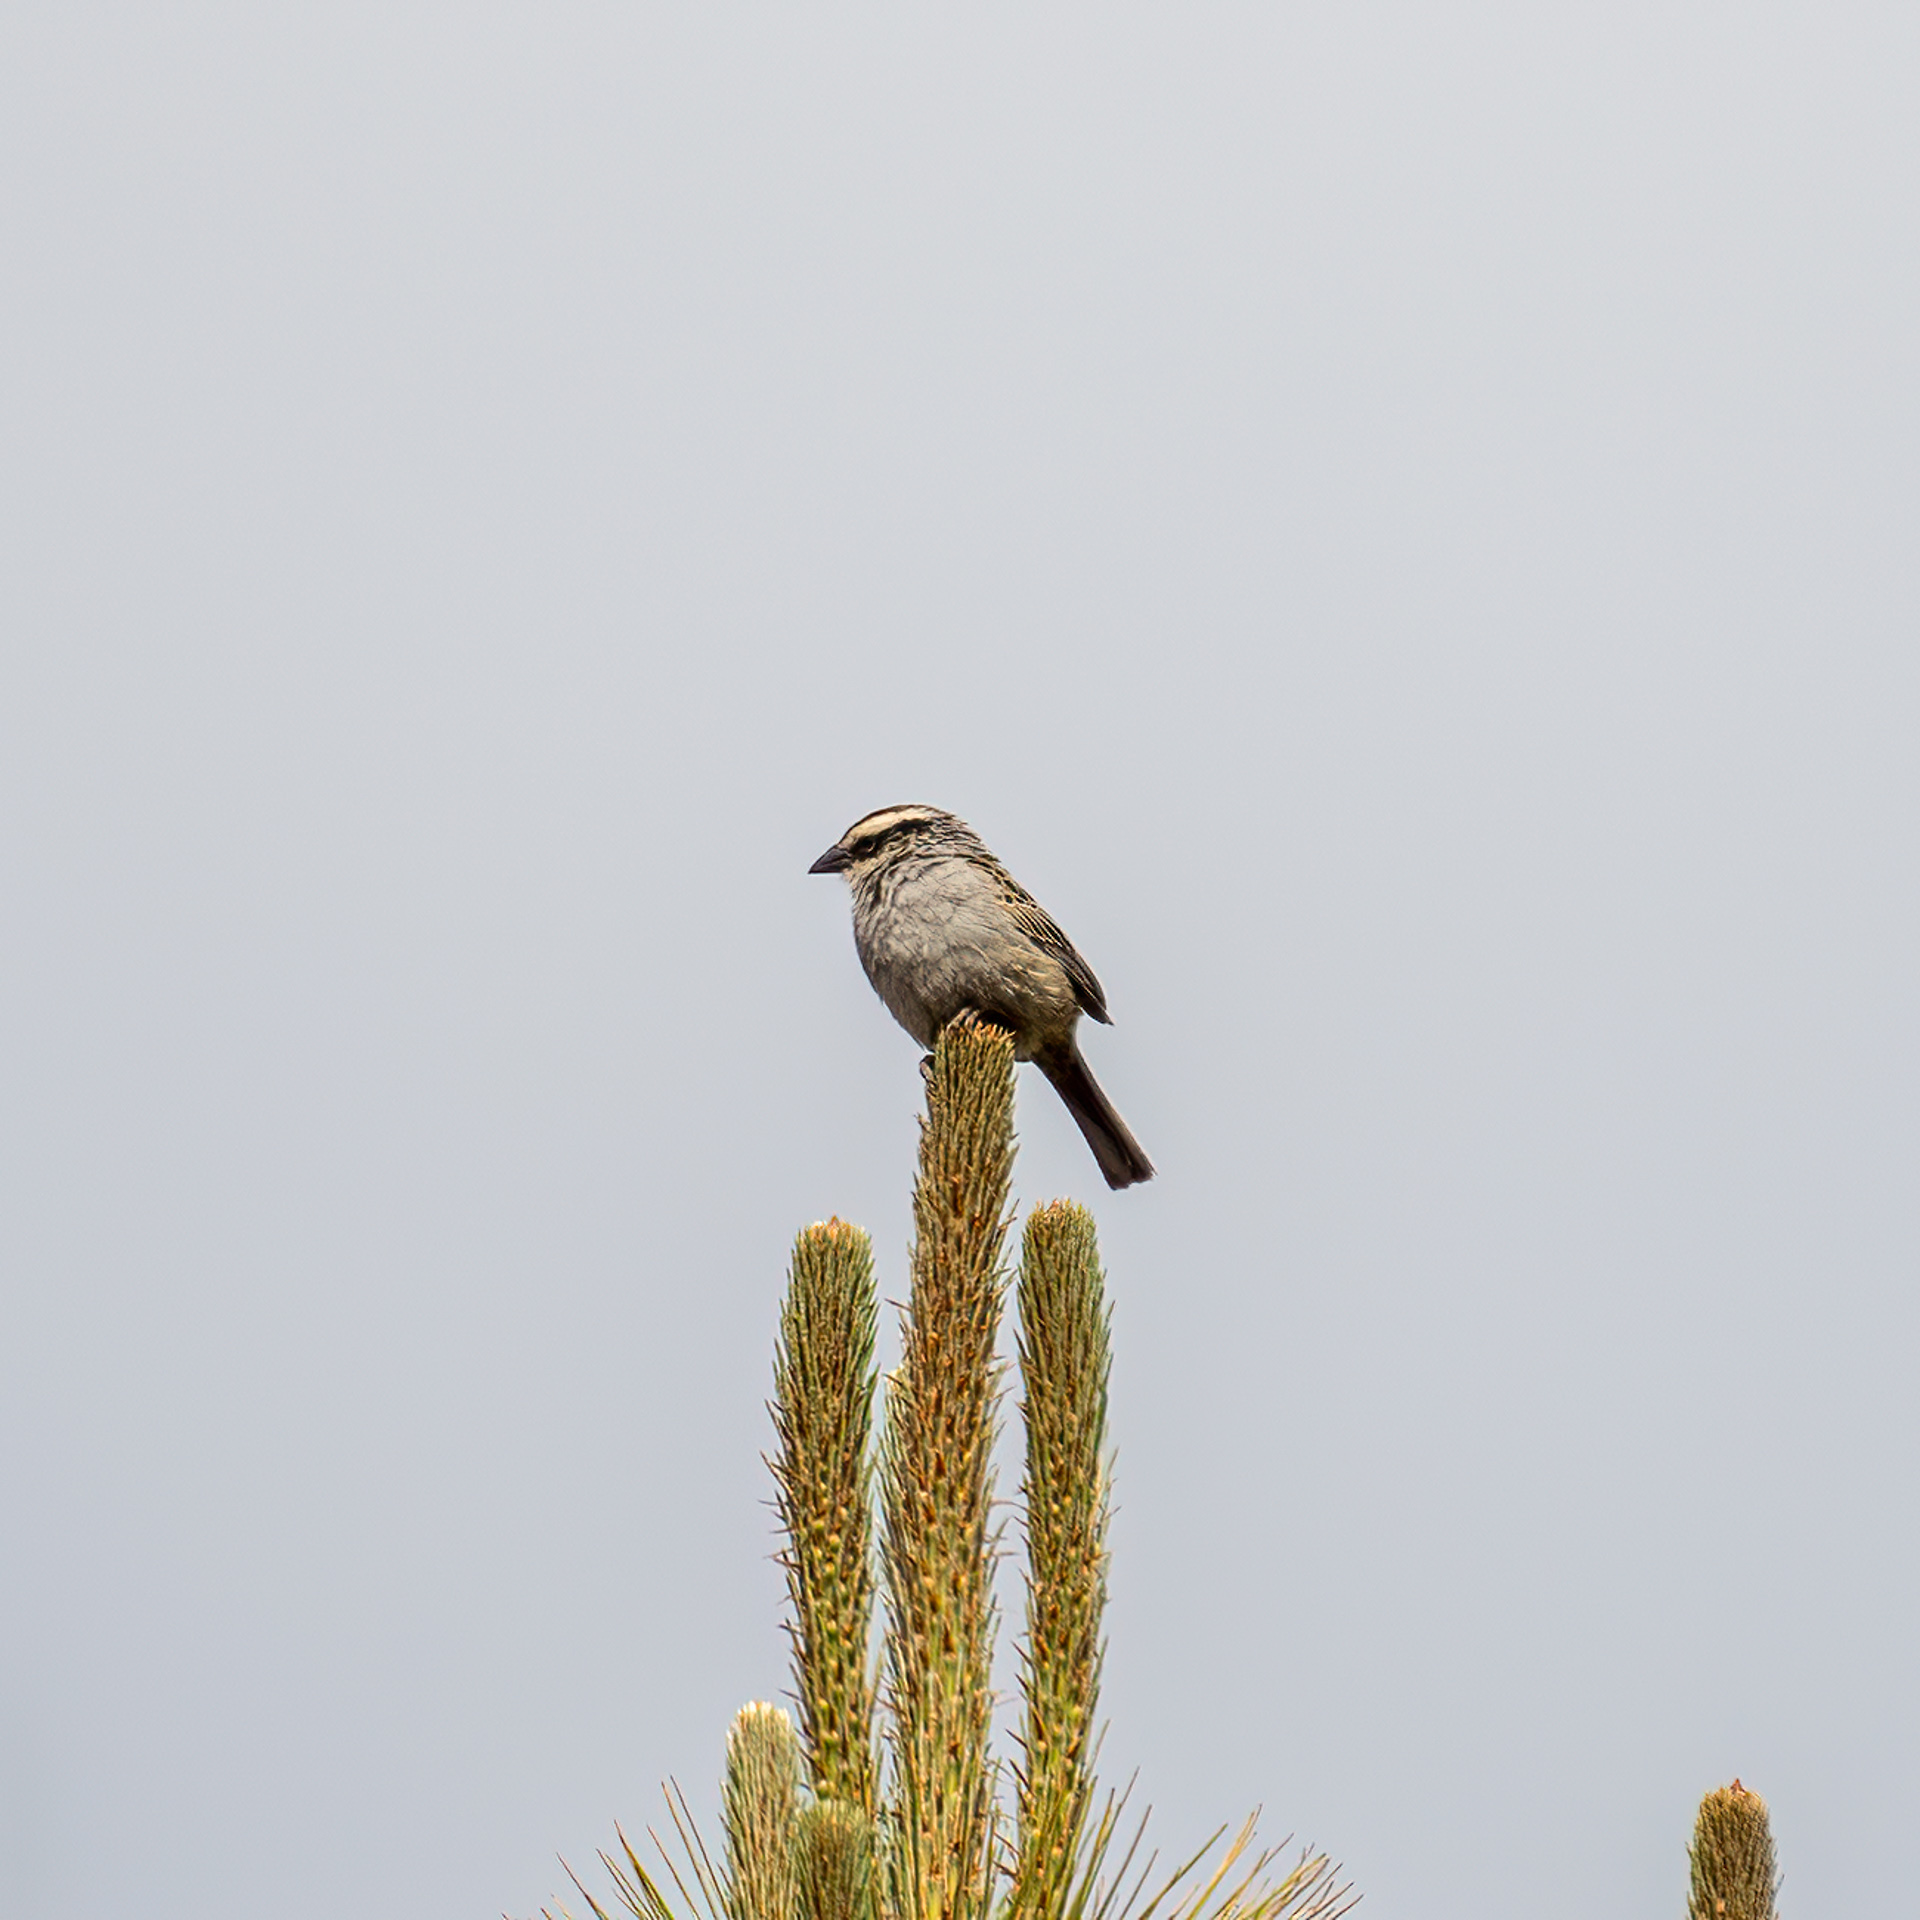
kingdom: Animalia
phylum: Chordata
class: Aves
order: Passeriformes
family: Passerellidae
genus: Oriturus
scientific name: Oriturus superciliosus
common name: Striped sparrow
